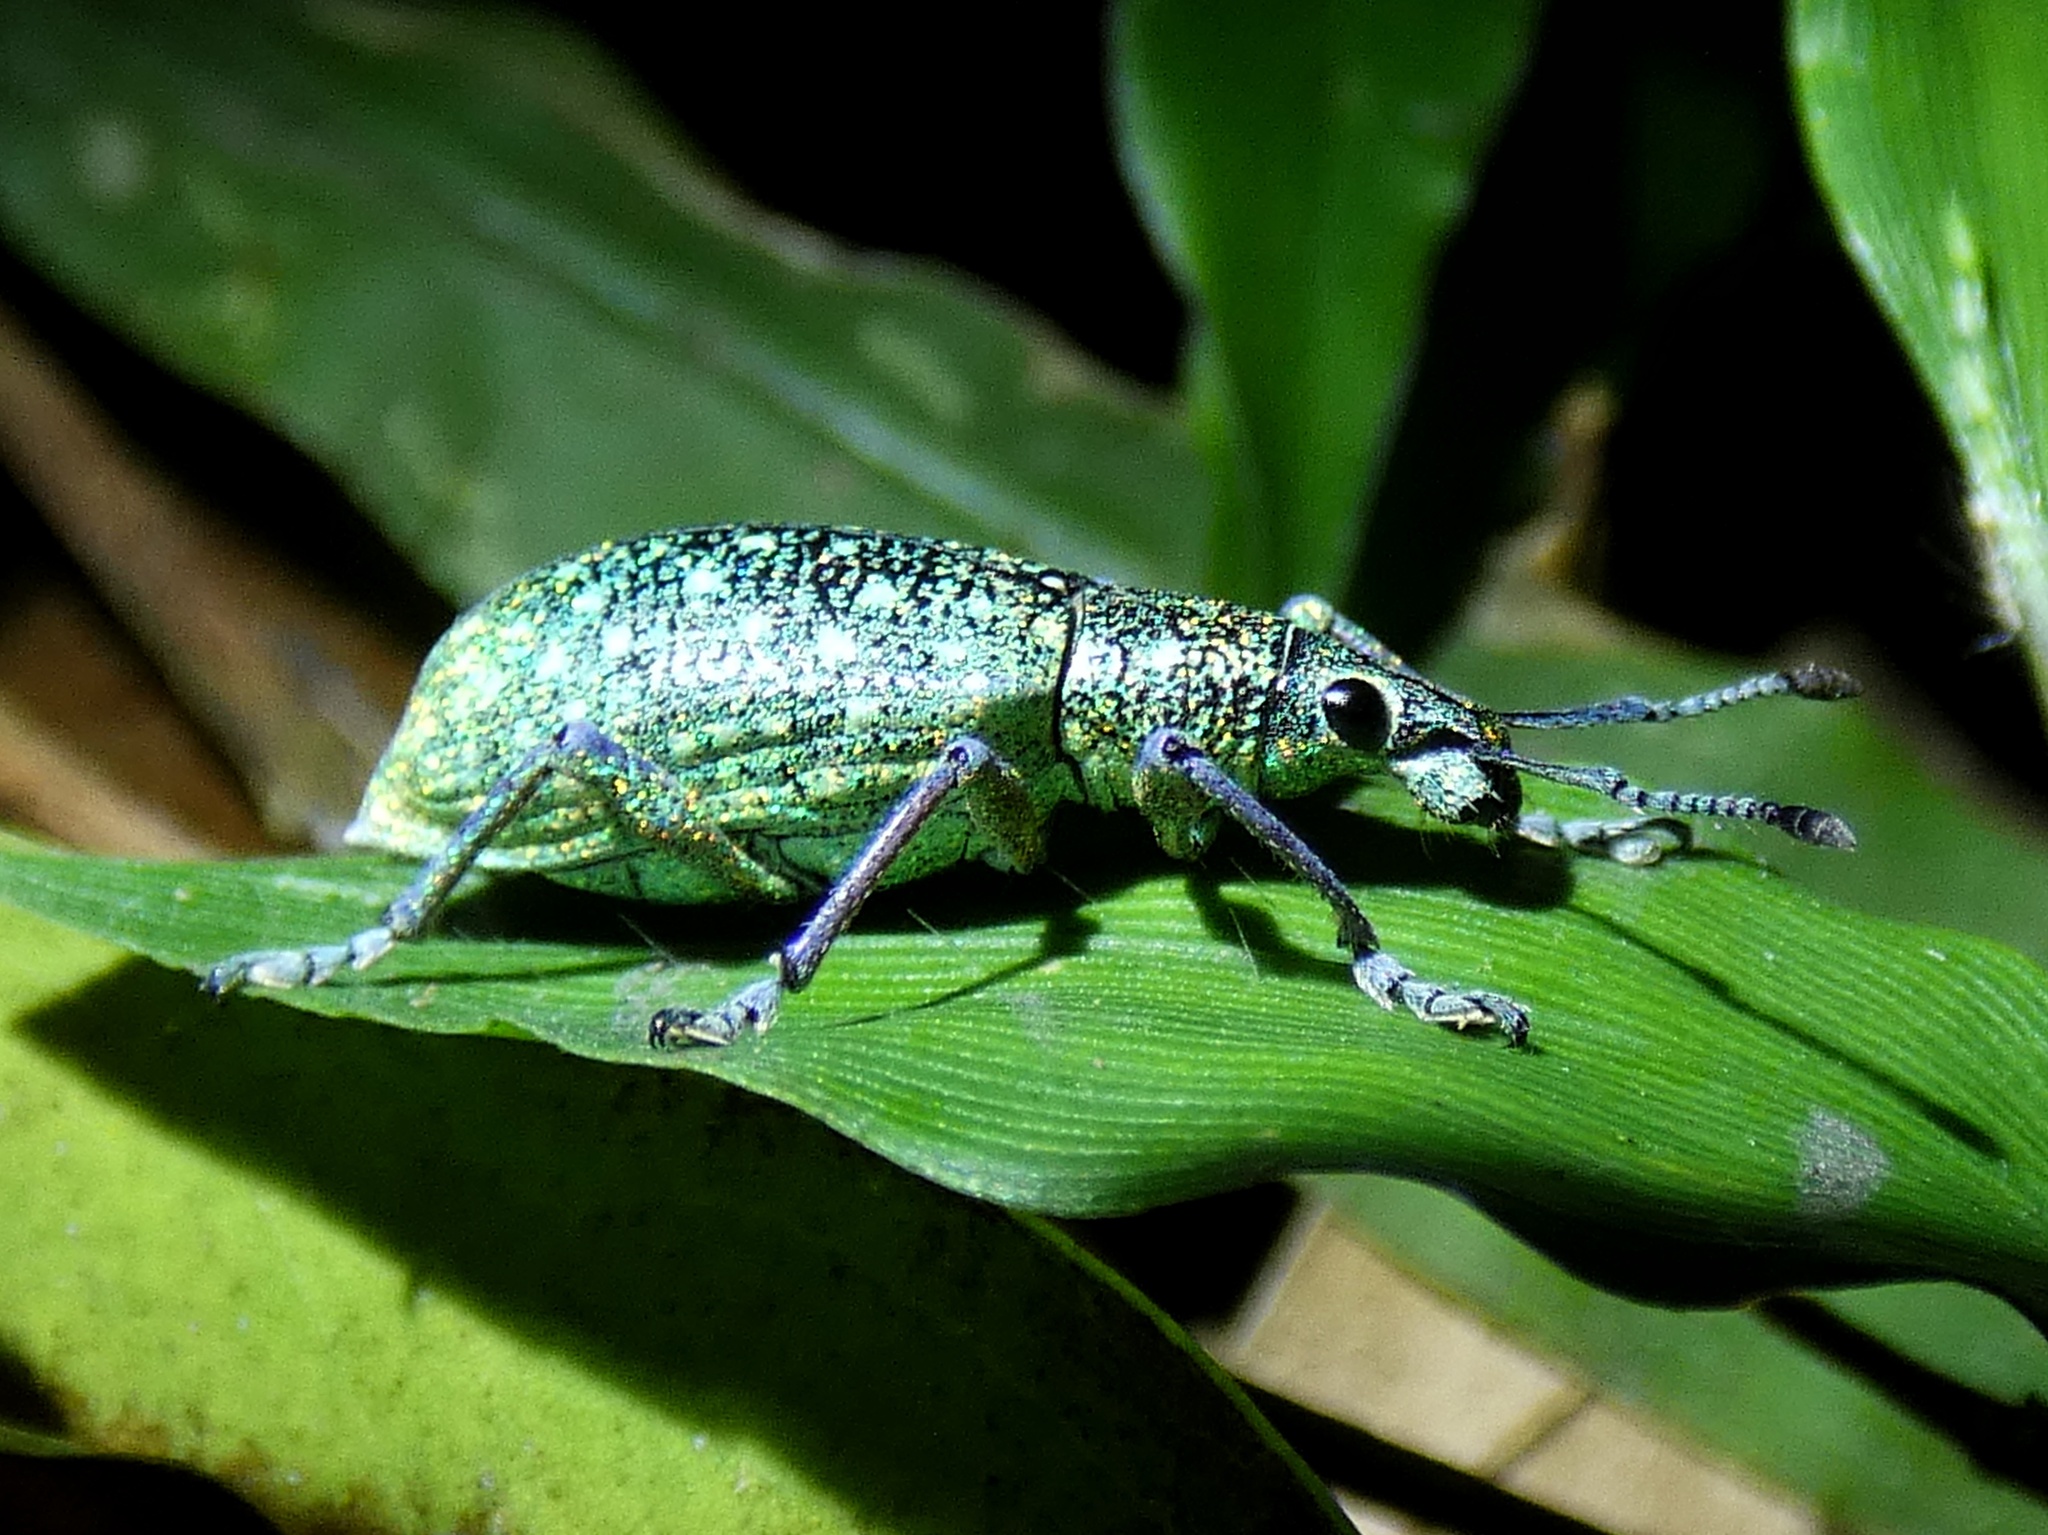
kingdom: Animalia
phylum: Arthropoda
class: Insecta
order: Coleoptera
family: Curculionidae
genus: Exophthalmus
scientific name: Exophthalmus jekelianus
